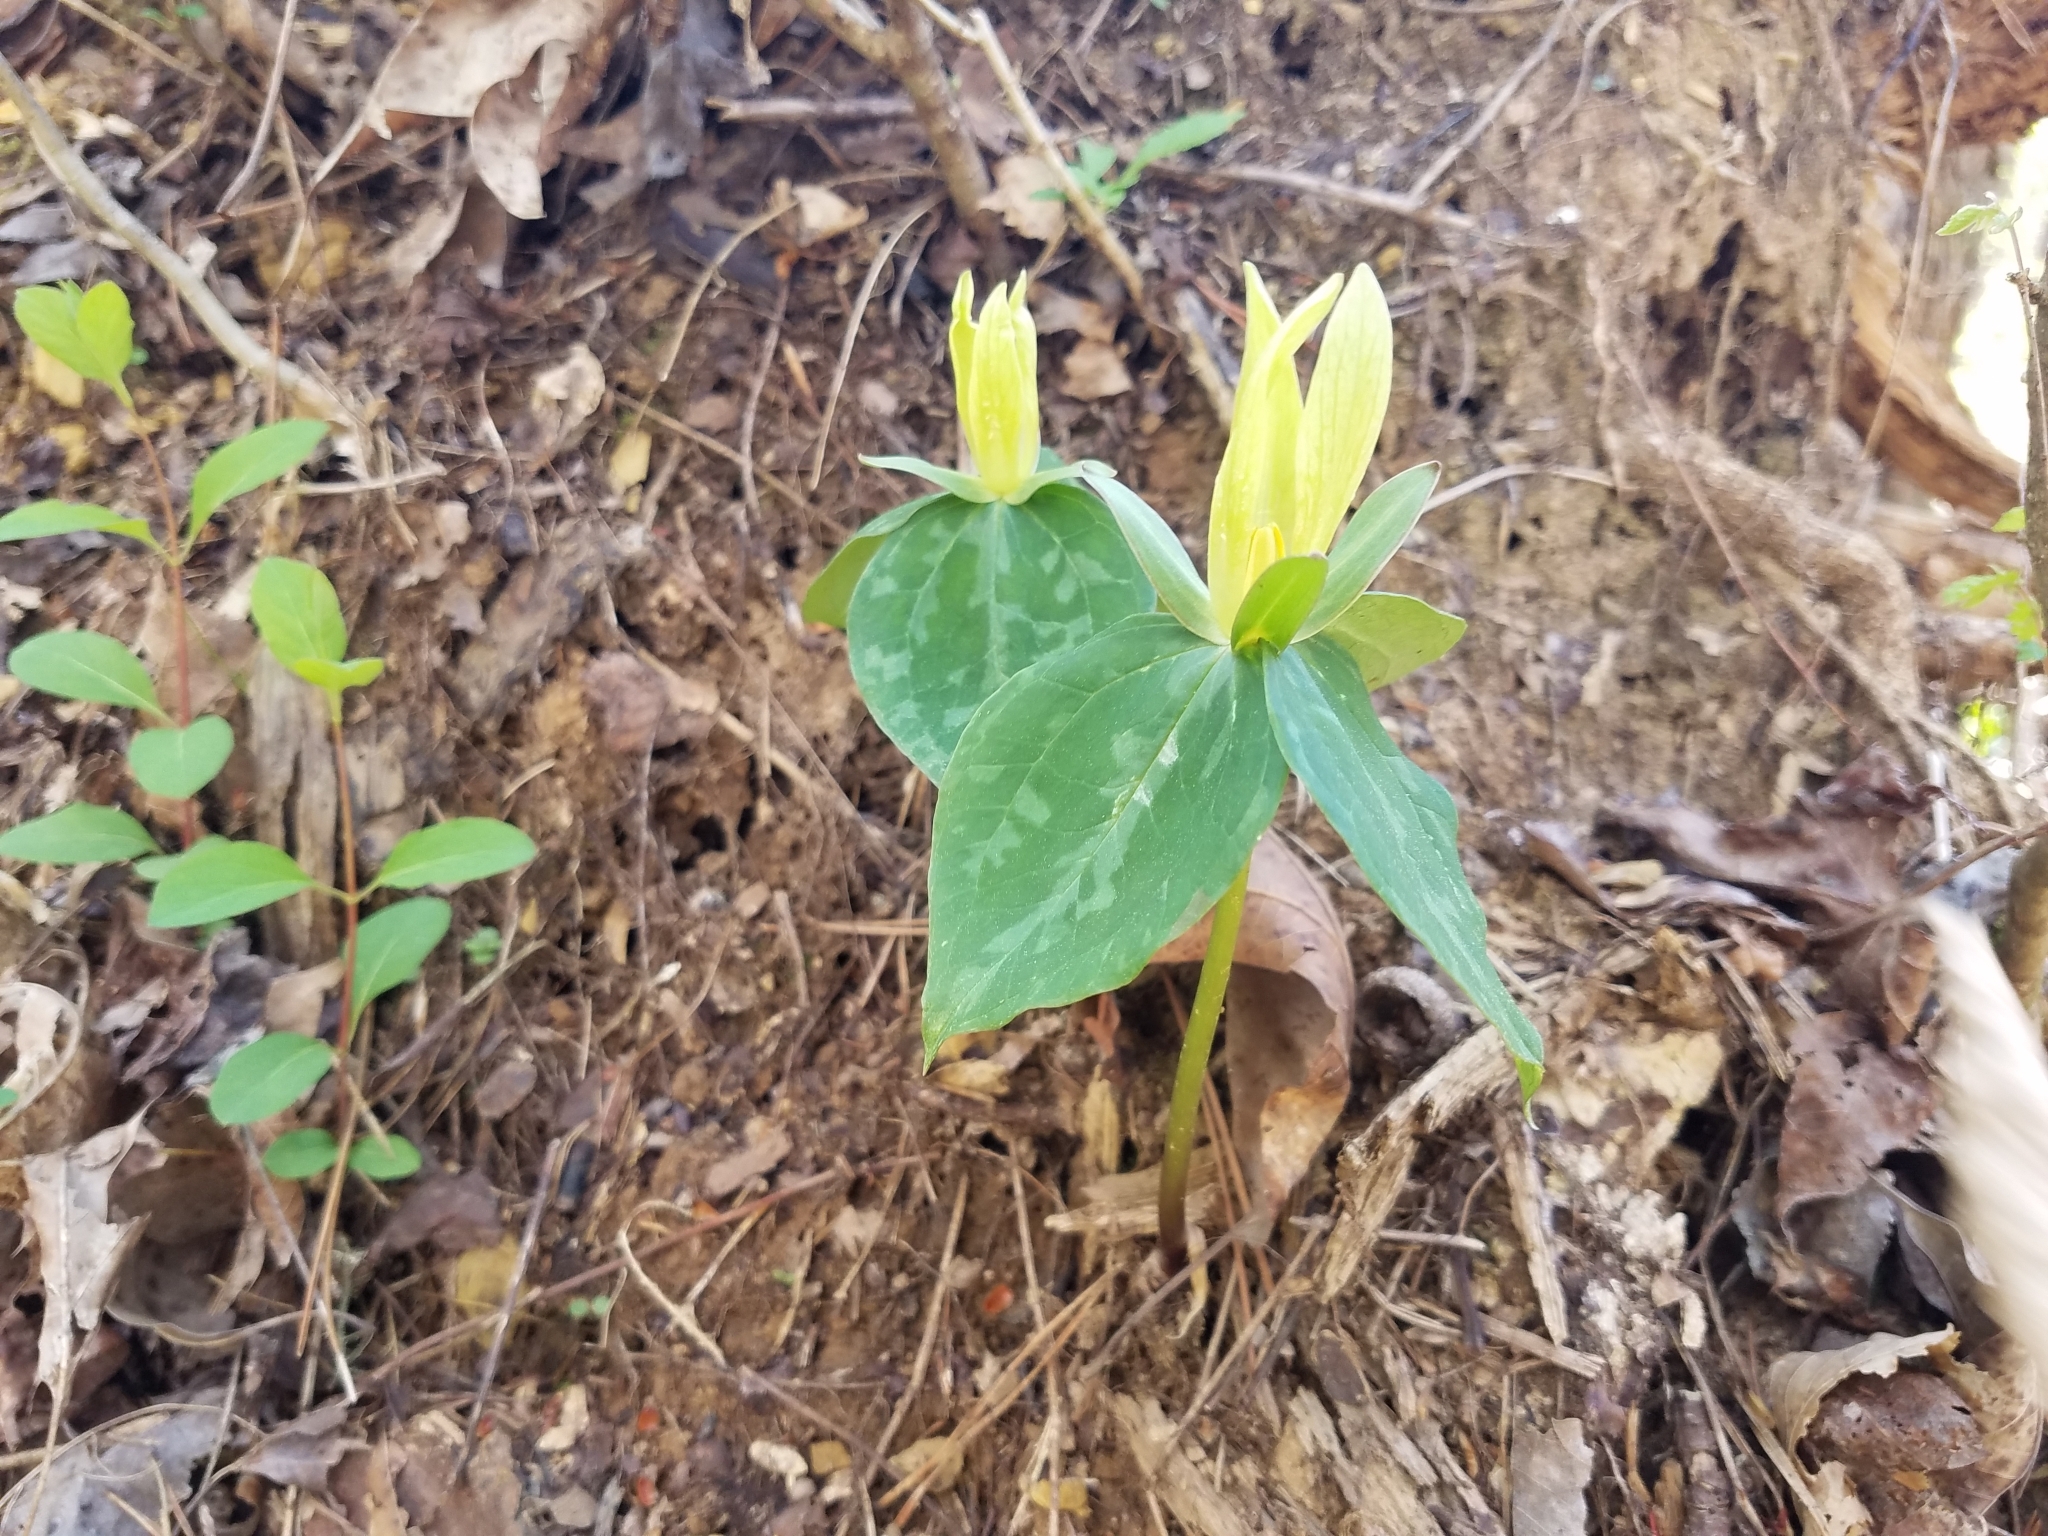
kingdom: Plantae
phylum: Tracheophyta
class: Liliopsida
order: Liliales
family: Melanthiaceae
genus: Trillium
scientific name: Trillium luteum
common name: Wax trillium
